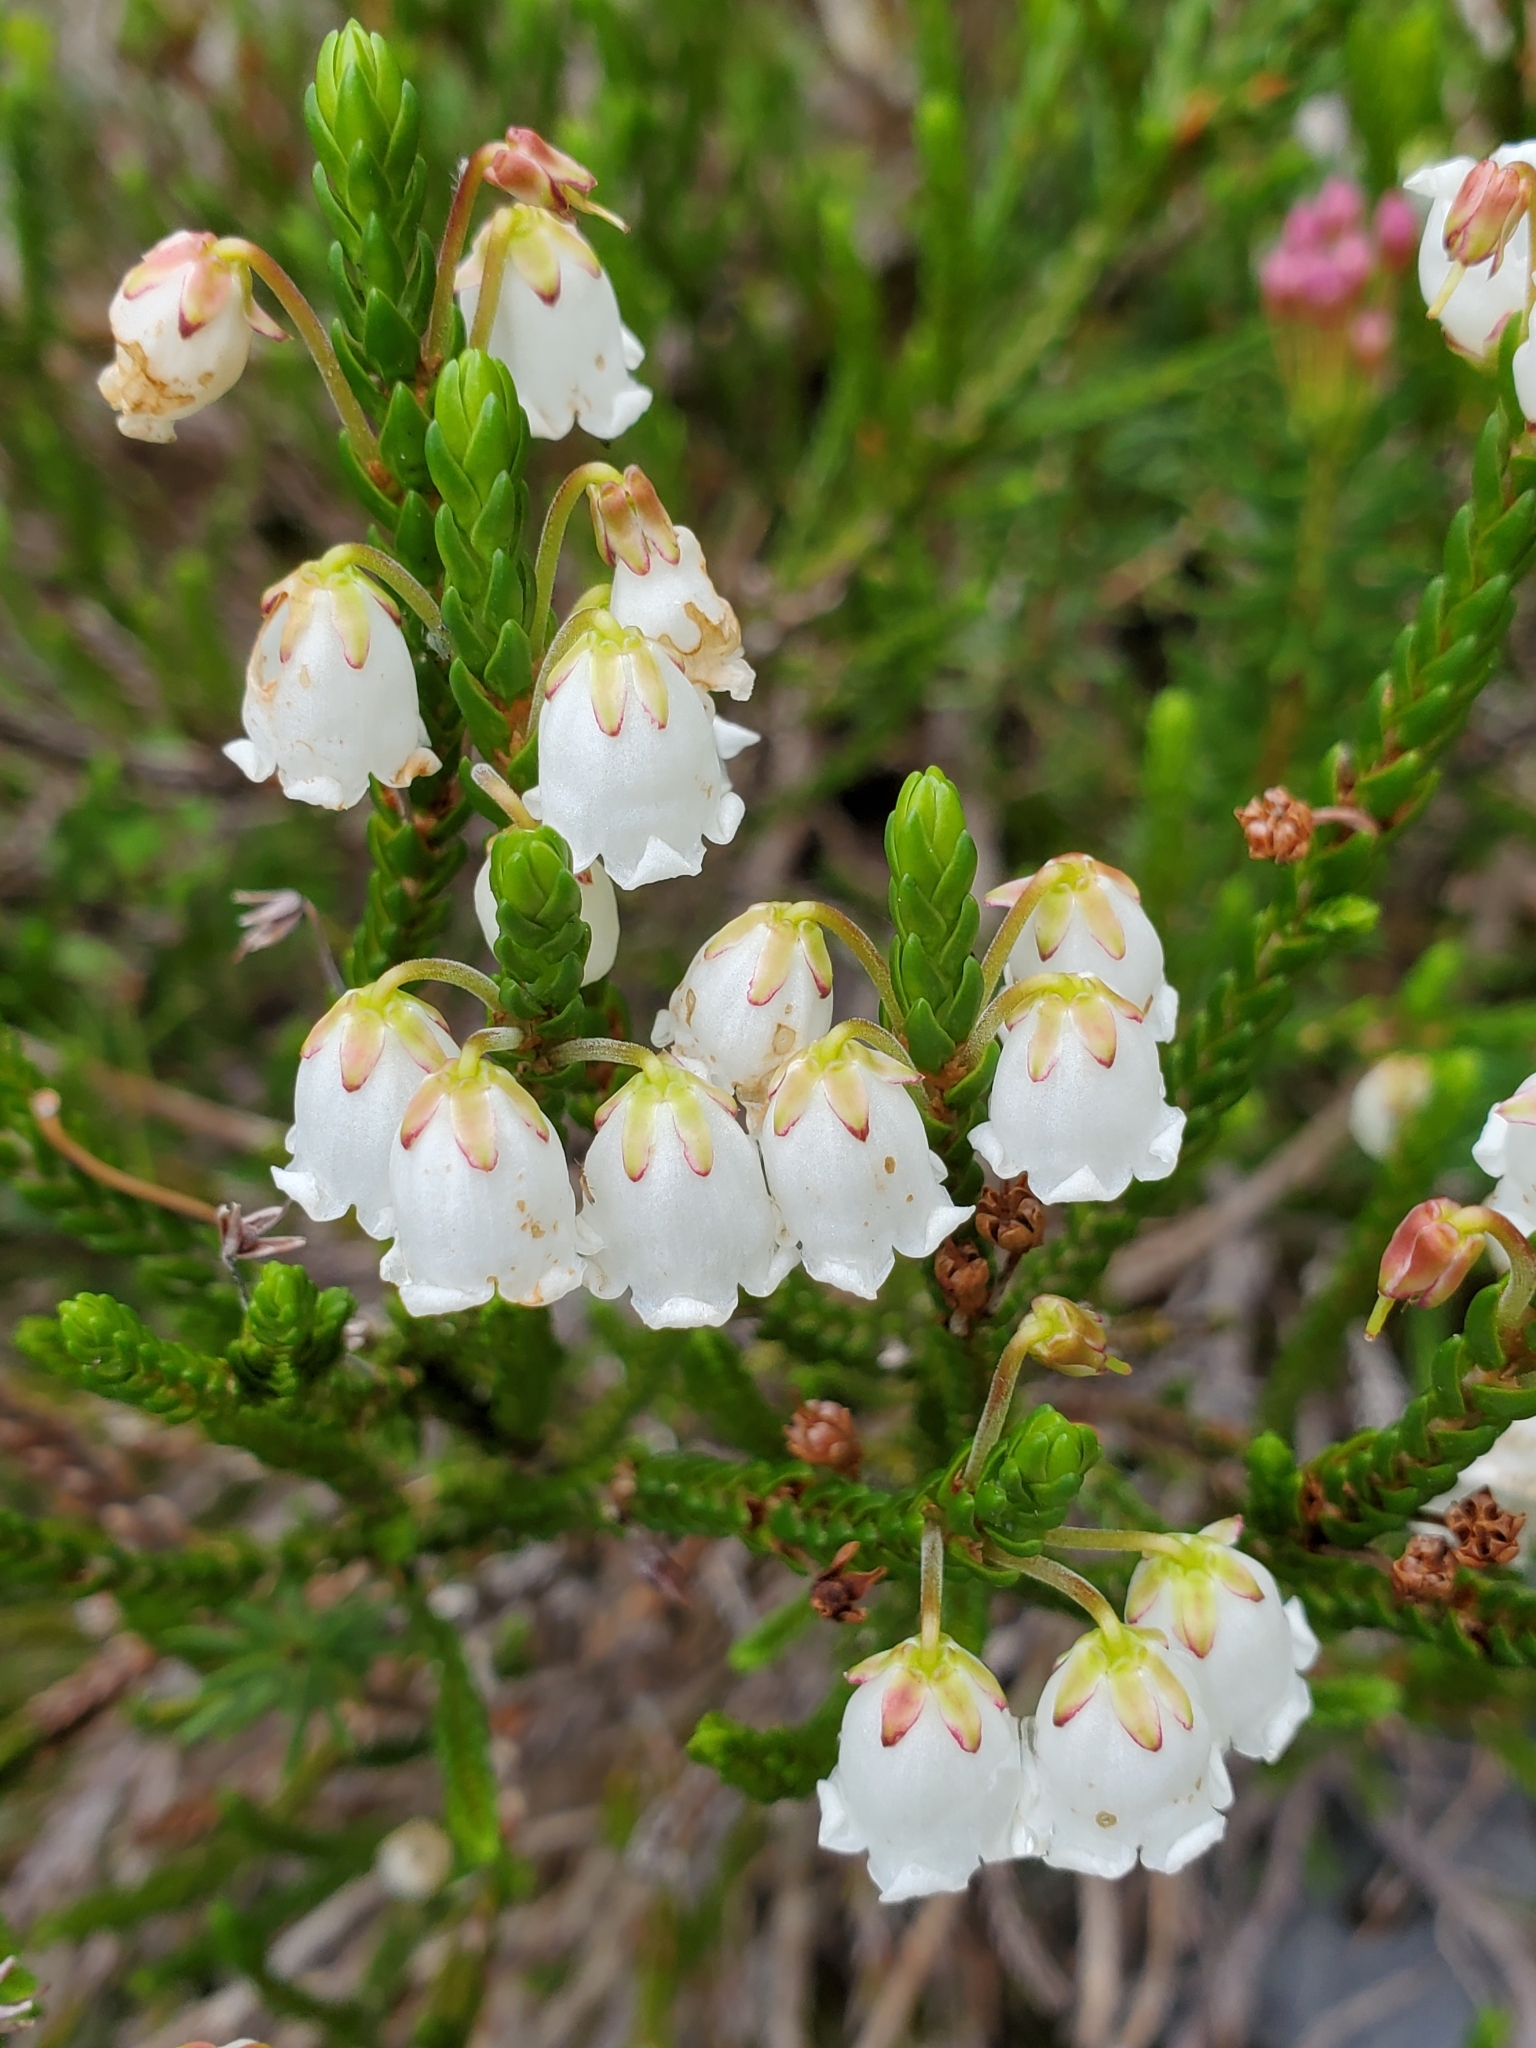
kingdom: Plantae
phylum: Tracheophyta
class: Magnoliopsida
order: Ericales
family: Ericaceae
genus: Cassiope
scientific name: Cassiope mertensiana
